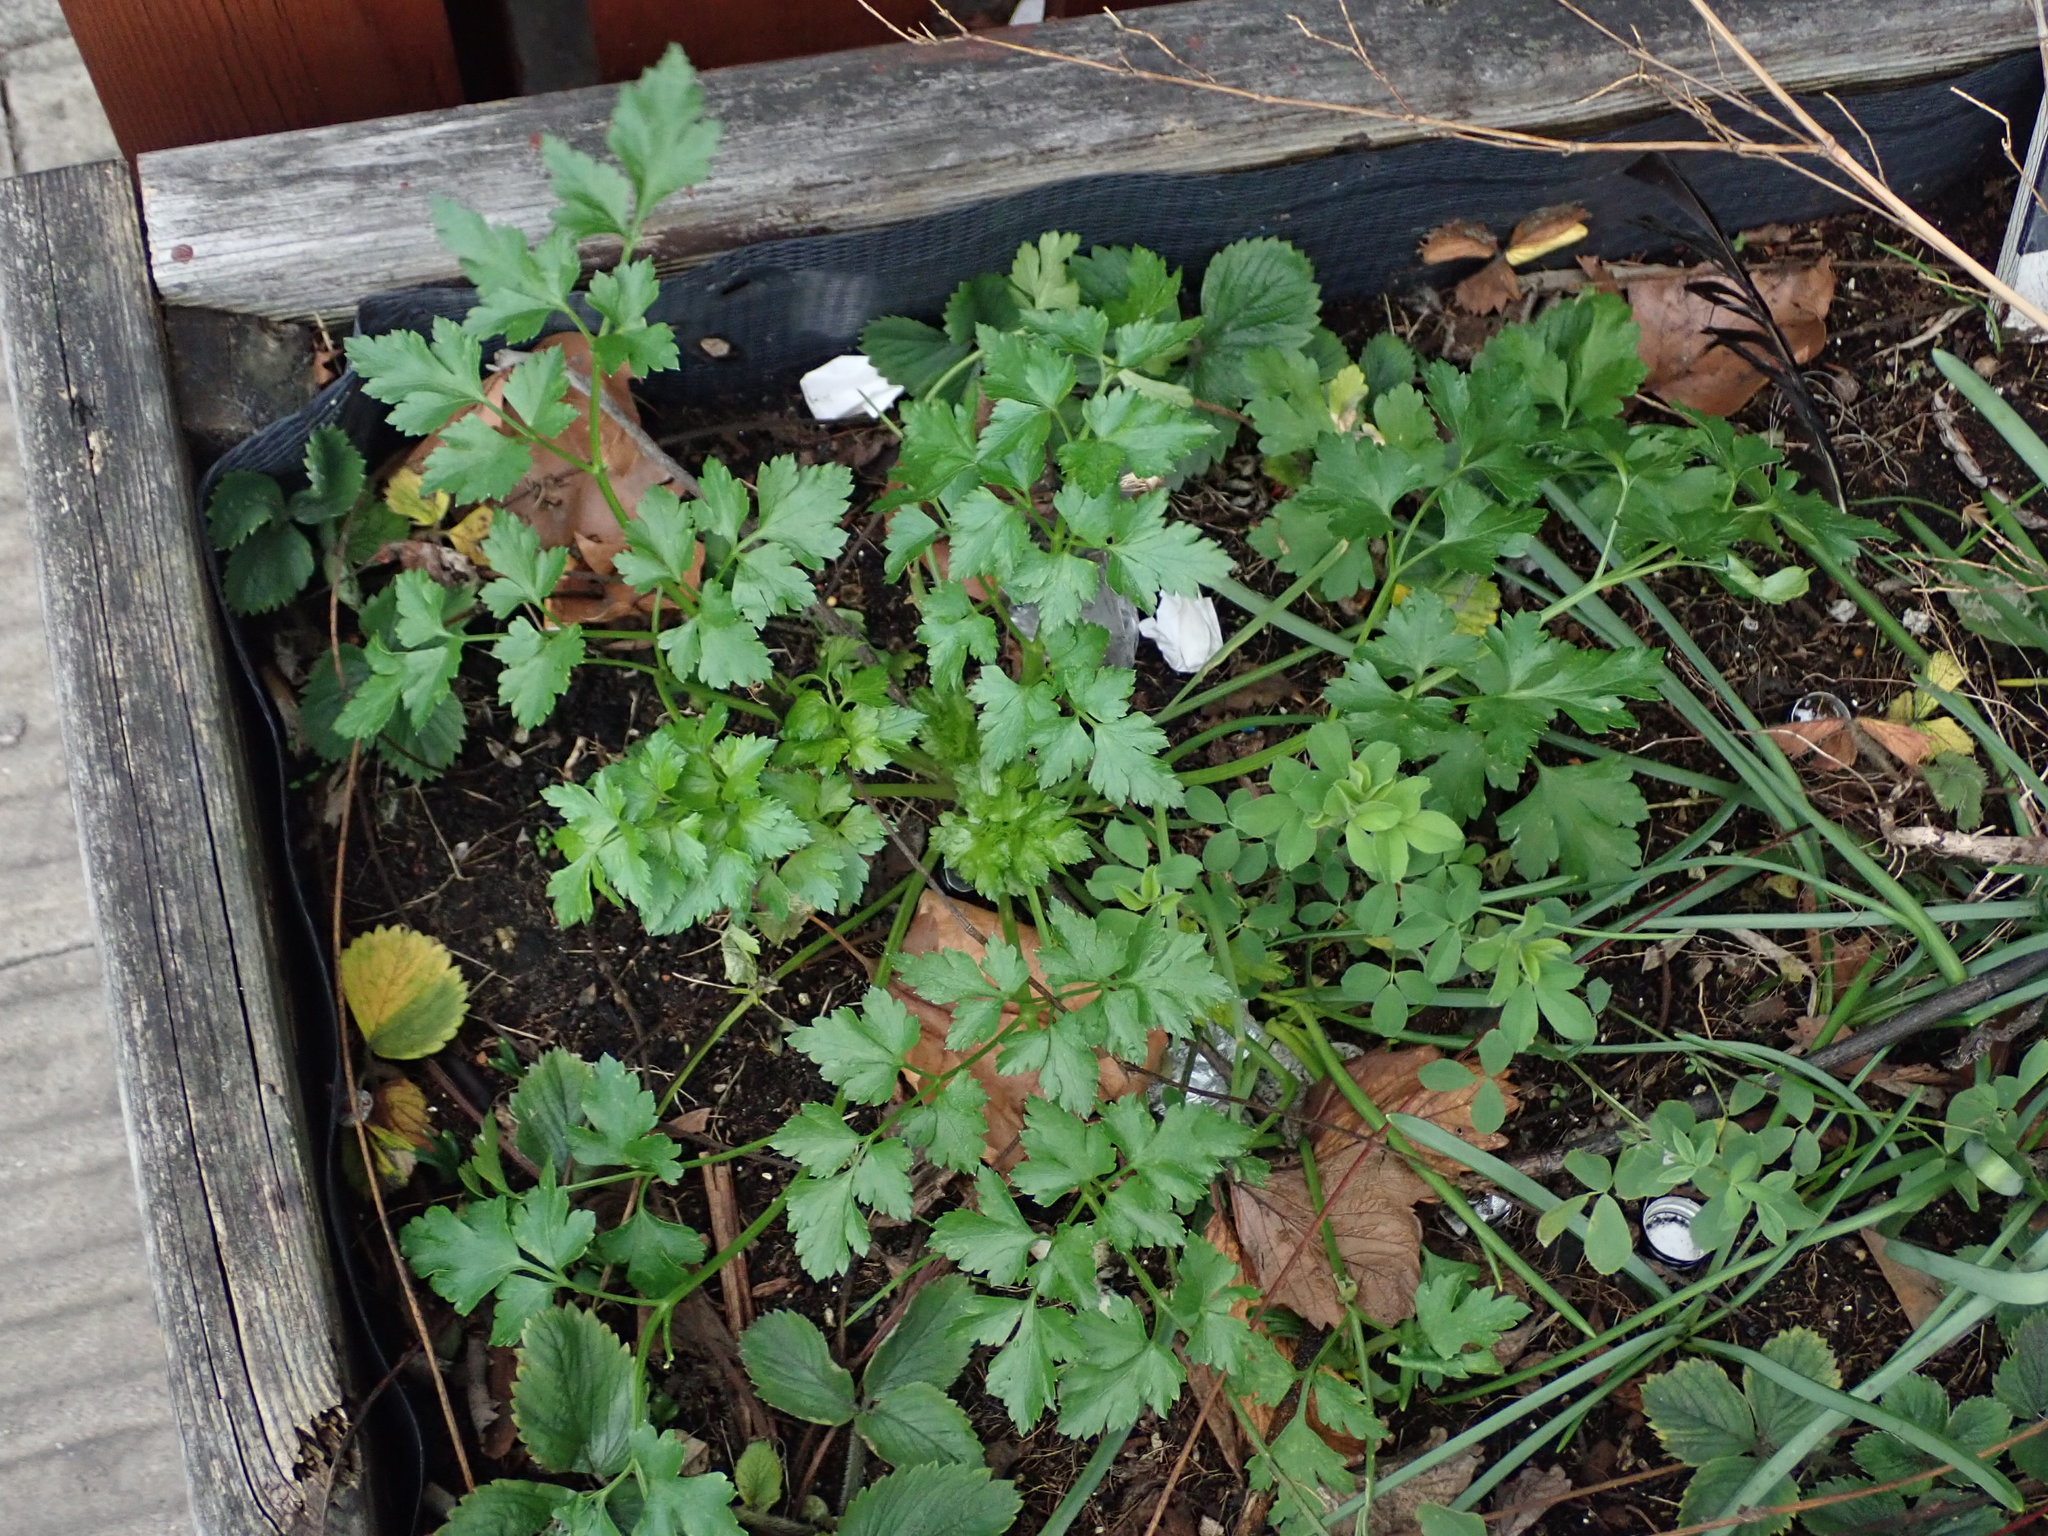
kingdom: Plantae
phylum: Tracheophyta
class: Magnoliopsida
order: Apiales
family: Apiaceae
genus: Petroselinum
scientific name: Petroselinum crispum
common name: Parsley
